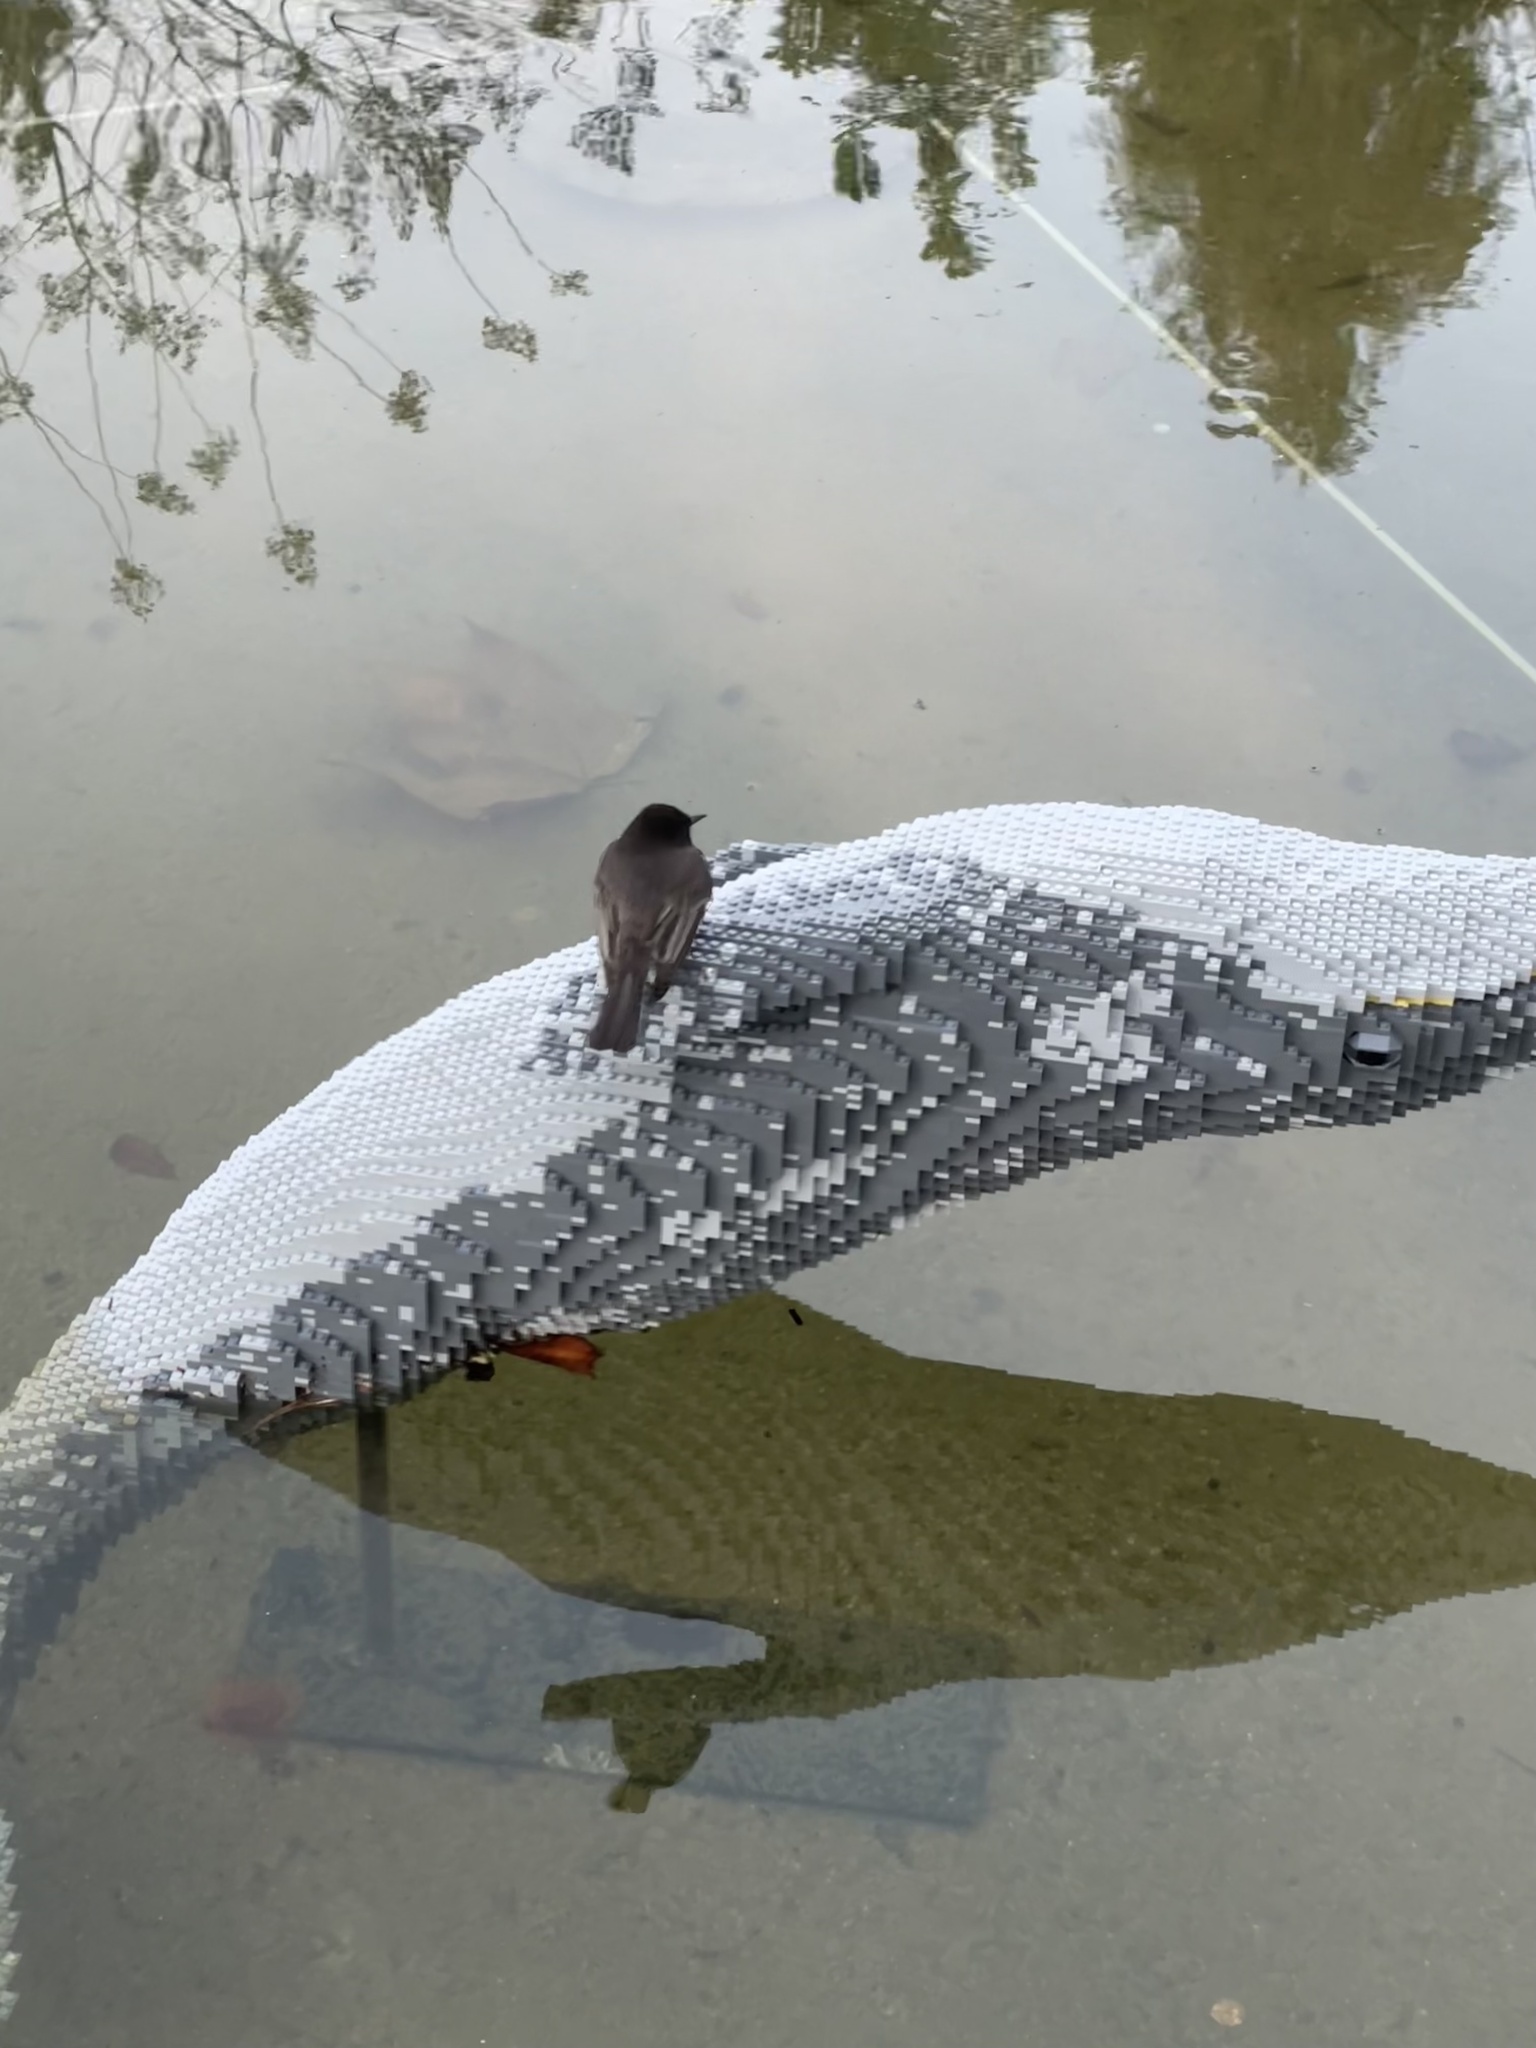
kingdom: Animalia
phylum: Chordata
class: Aves
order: Passeriformes
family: Tyrannidae
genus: Sayornis
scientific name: Sayornis nigricans
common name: Black phoebe
